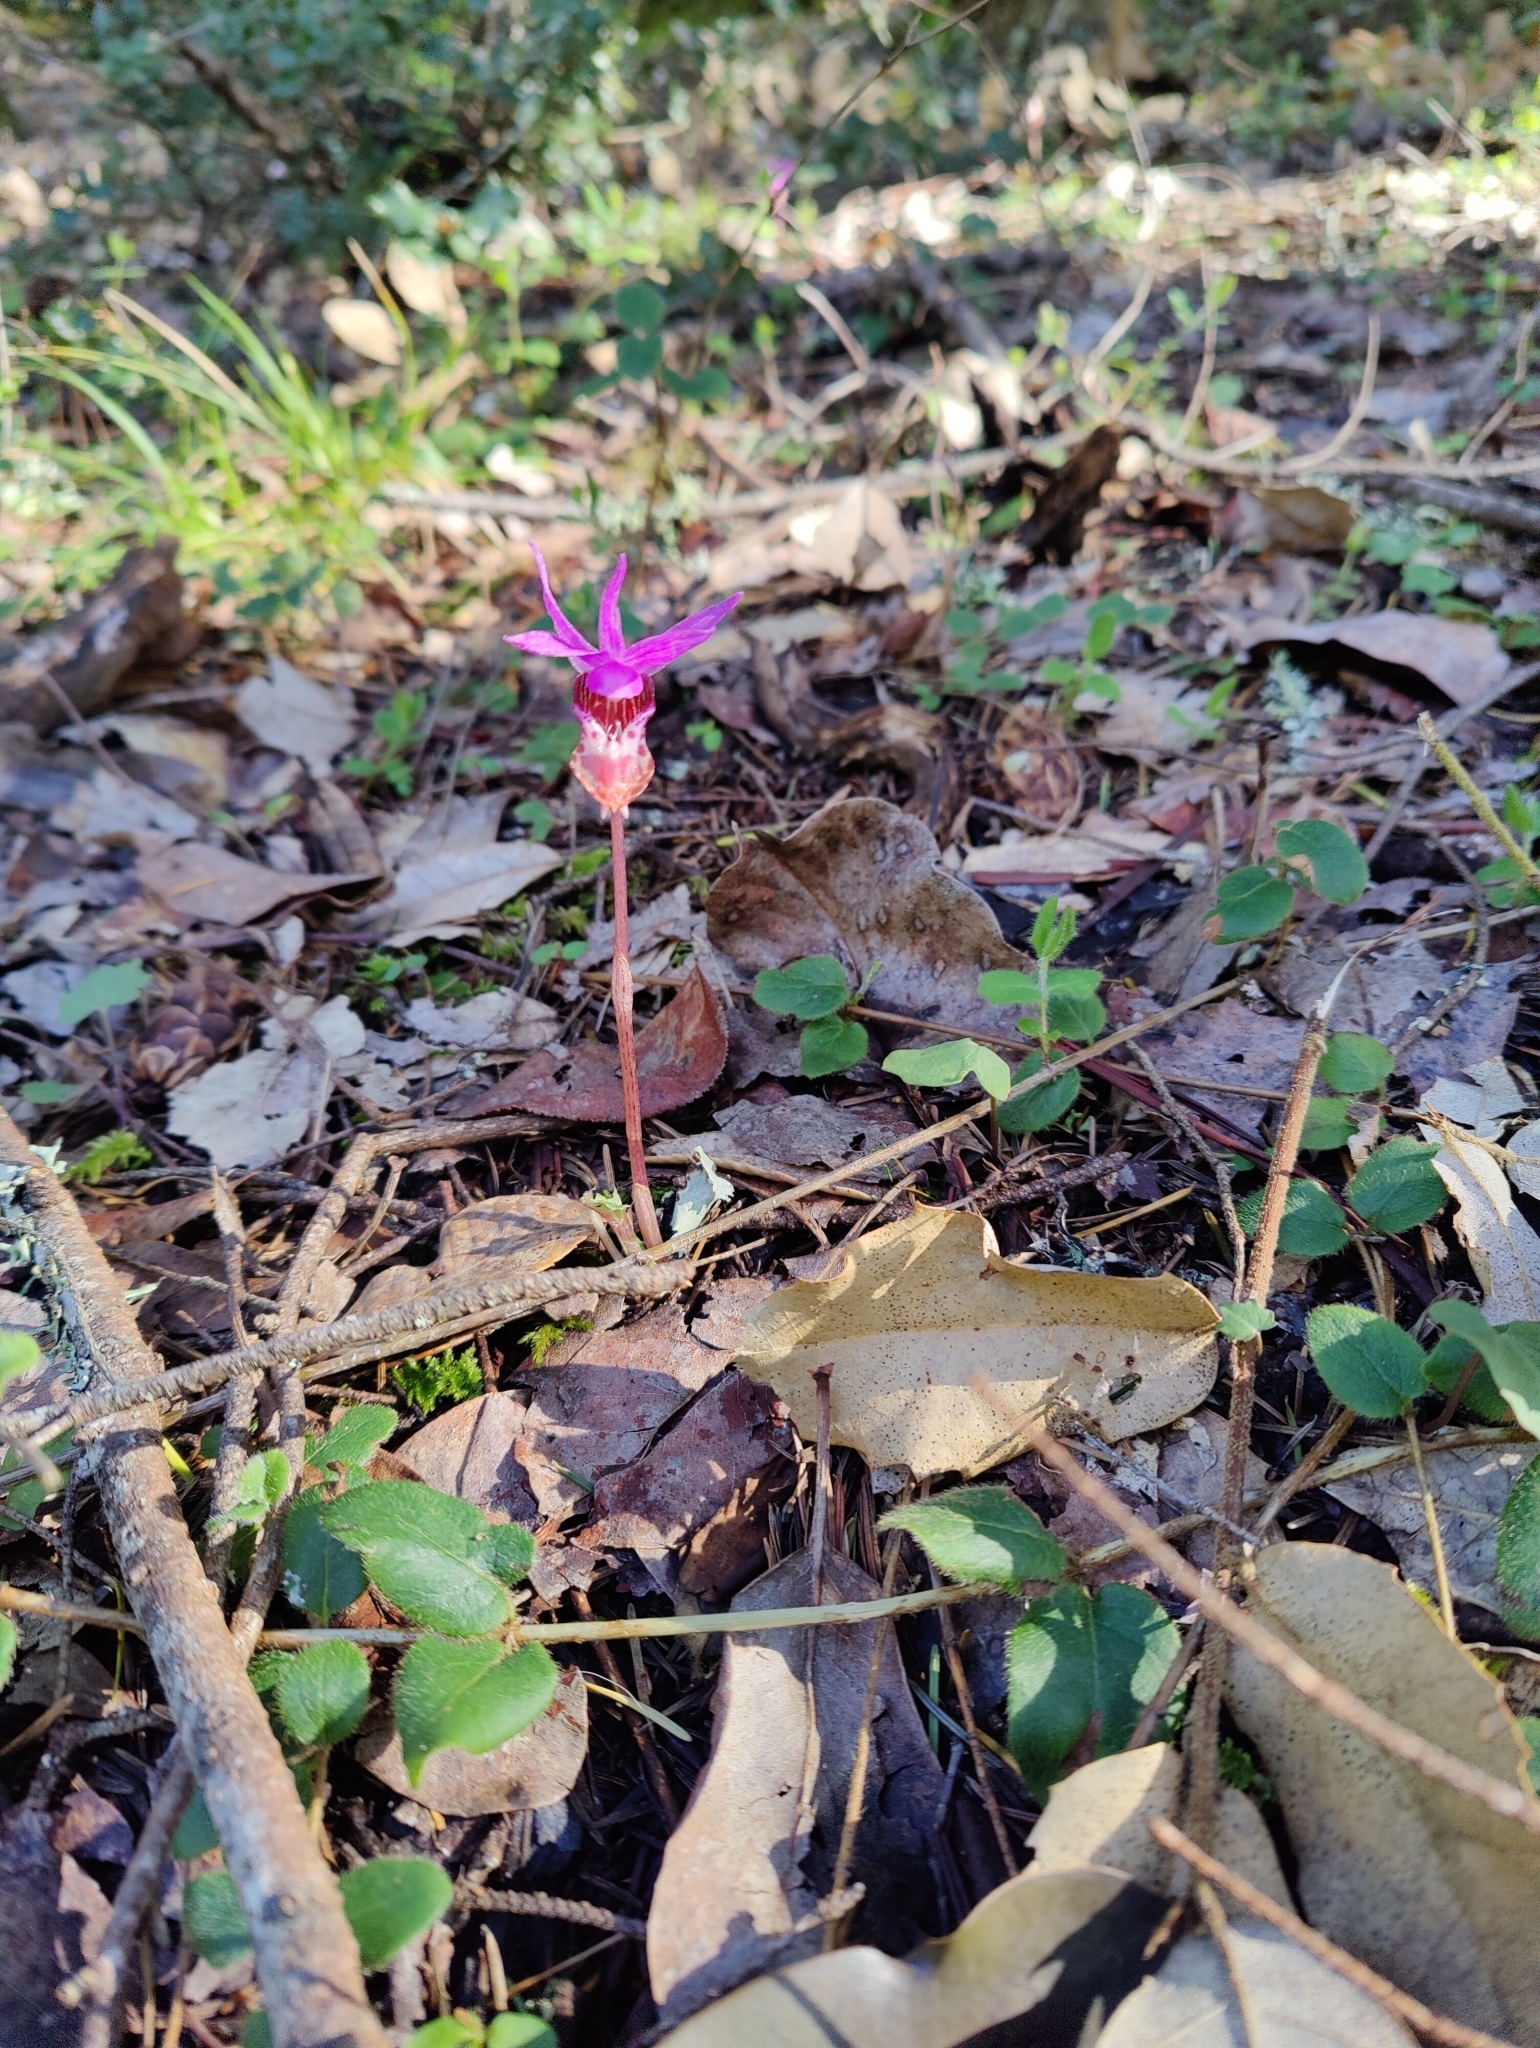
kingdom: Plantae
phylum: Tracheophyta
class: Liliopsida
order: Asparagales
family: Orchidaceae
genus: Calypso
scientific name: Calypso bulbosa
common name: Calypso
